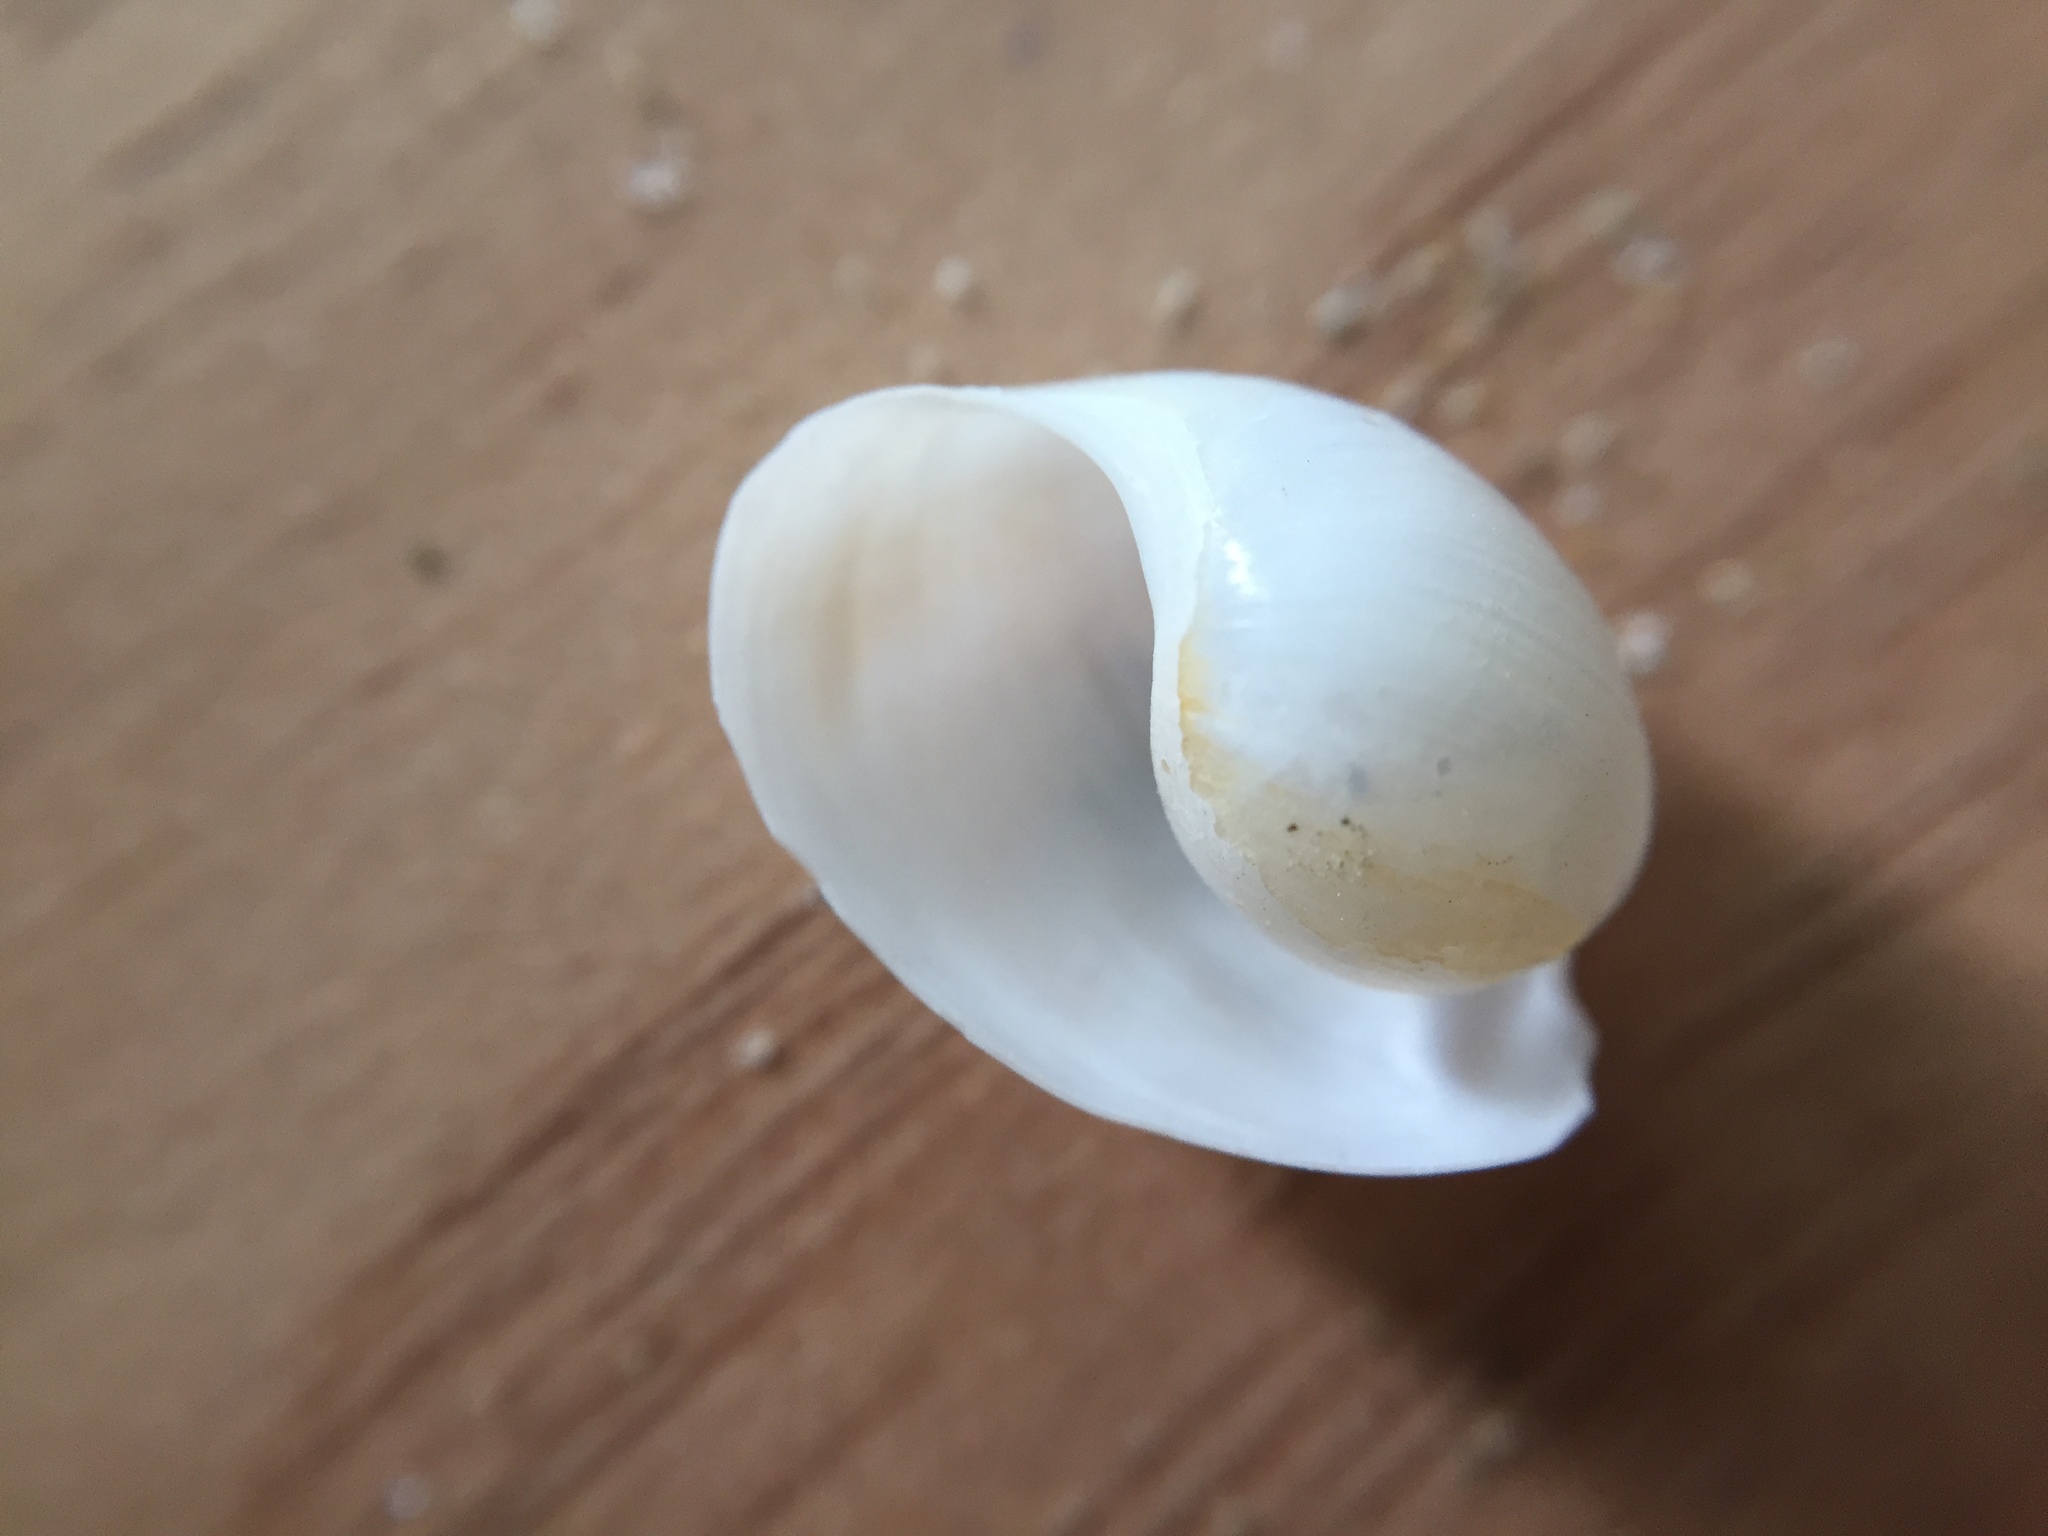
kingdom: Animalia
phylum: Mollusca
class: Gastropoda
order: Cephalaspidea
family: Haminoeidae
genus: Papawera
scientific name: Papawera zelandiae
